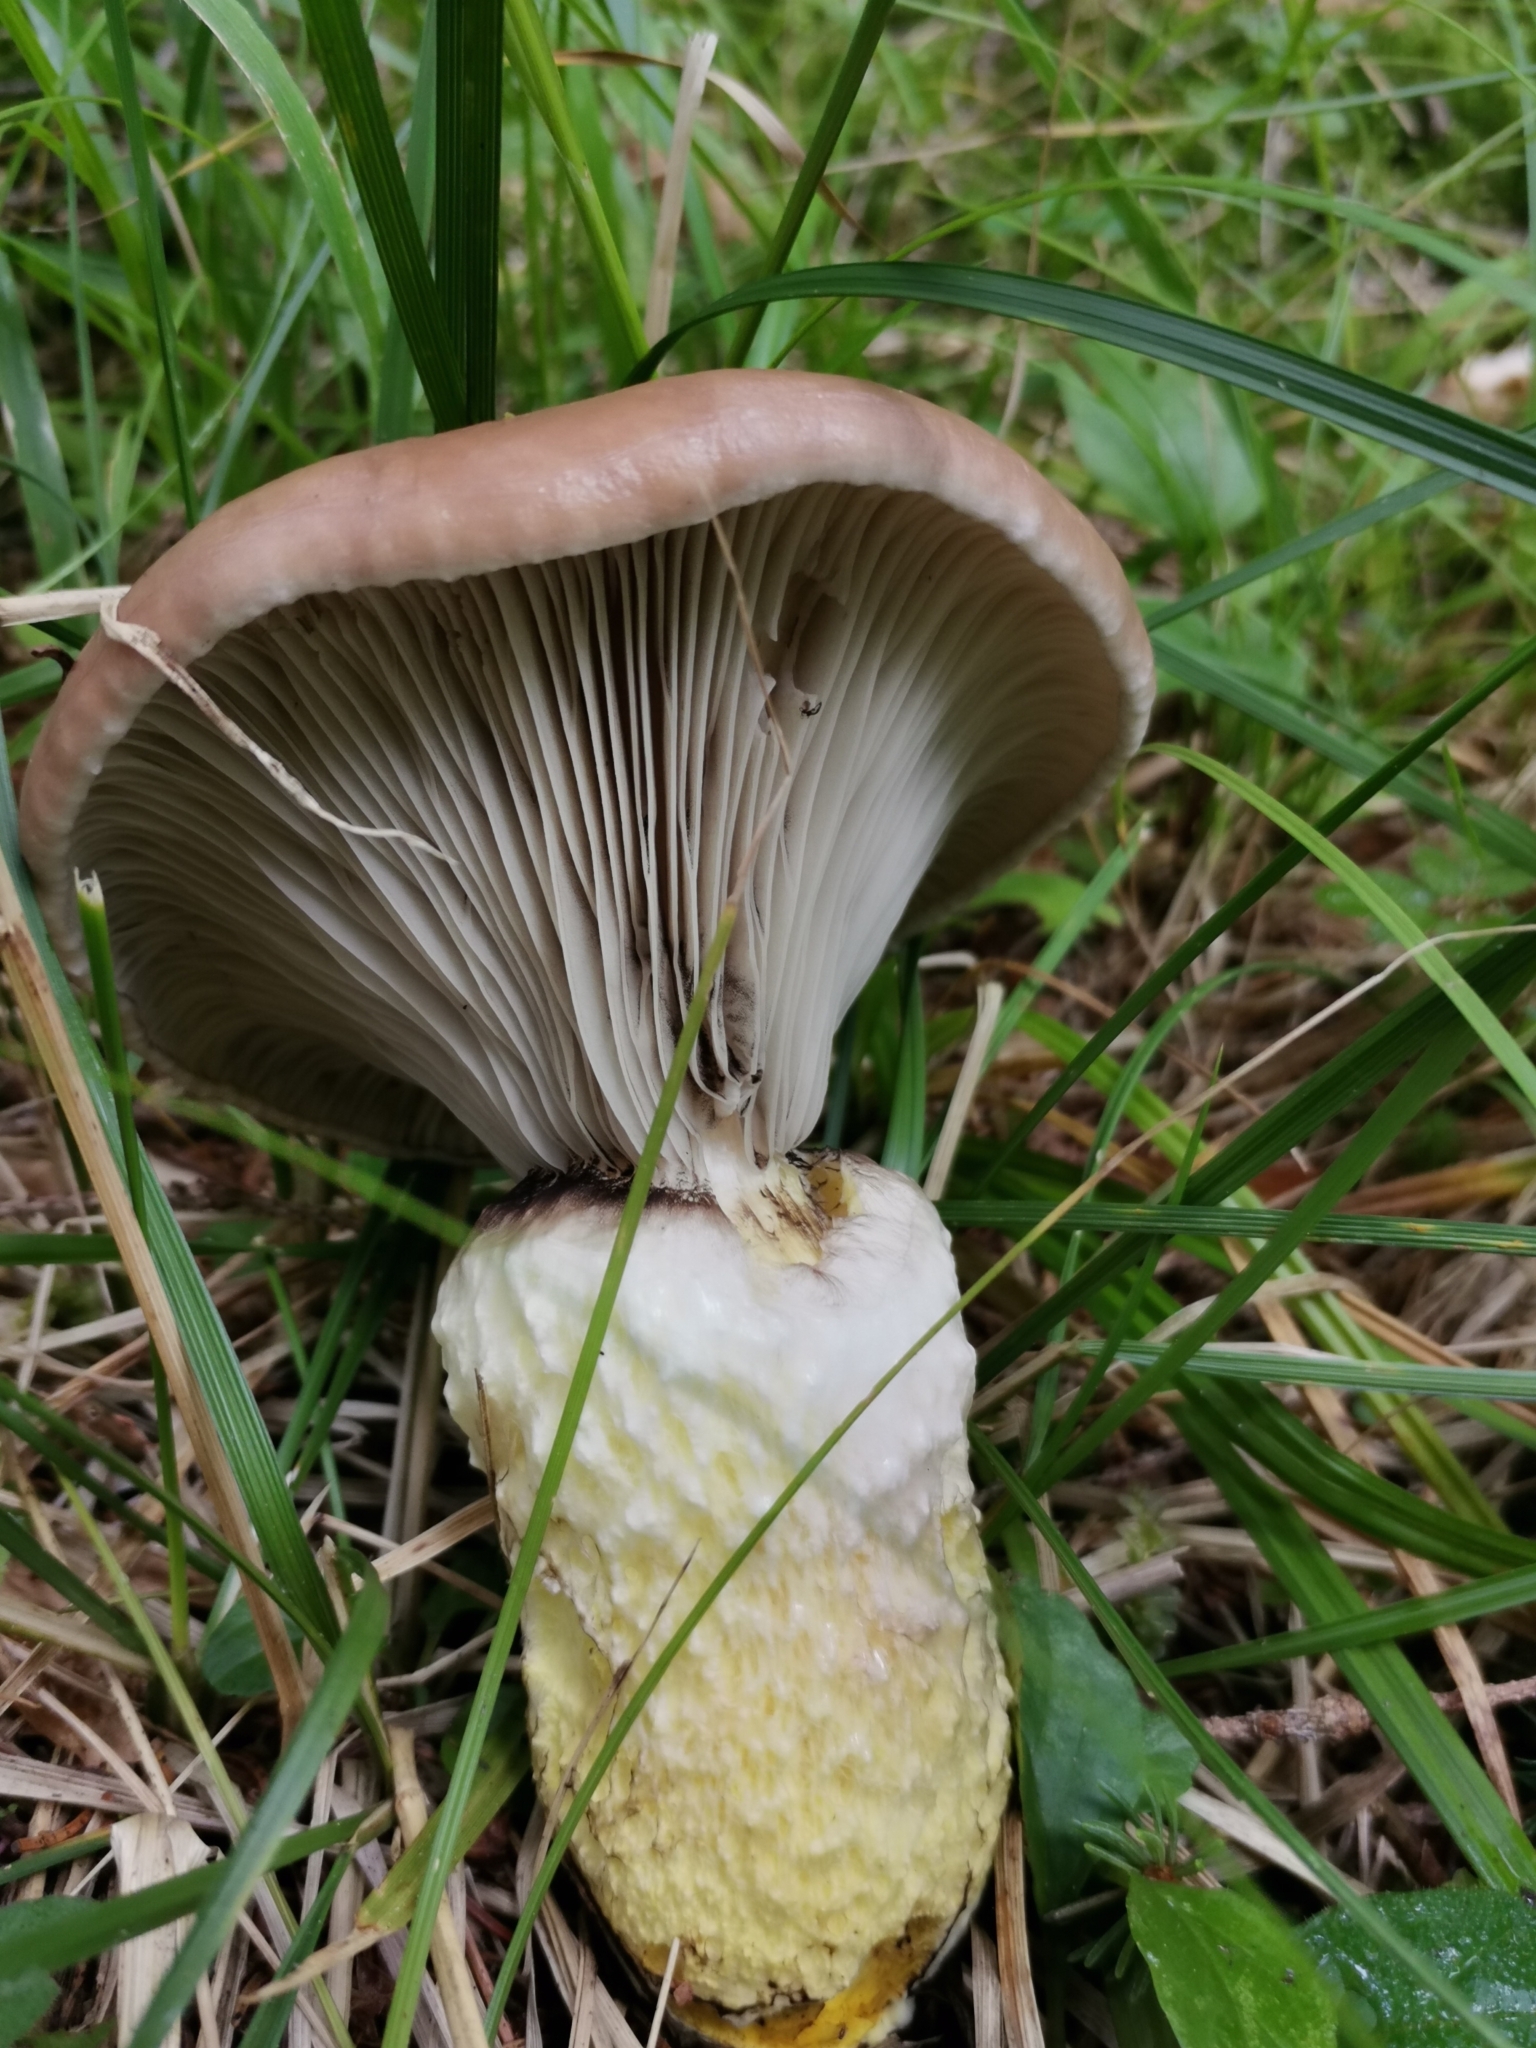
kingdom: Fungi
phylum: Basidiomycota
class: Agaricomycetes
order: Boletales
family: Gomphidiaceae
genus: Gomphidius
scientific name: Gomphidius glutinosus
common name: Slimy spike
